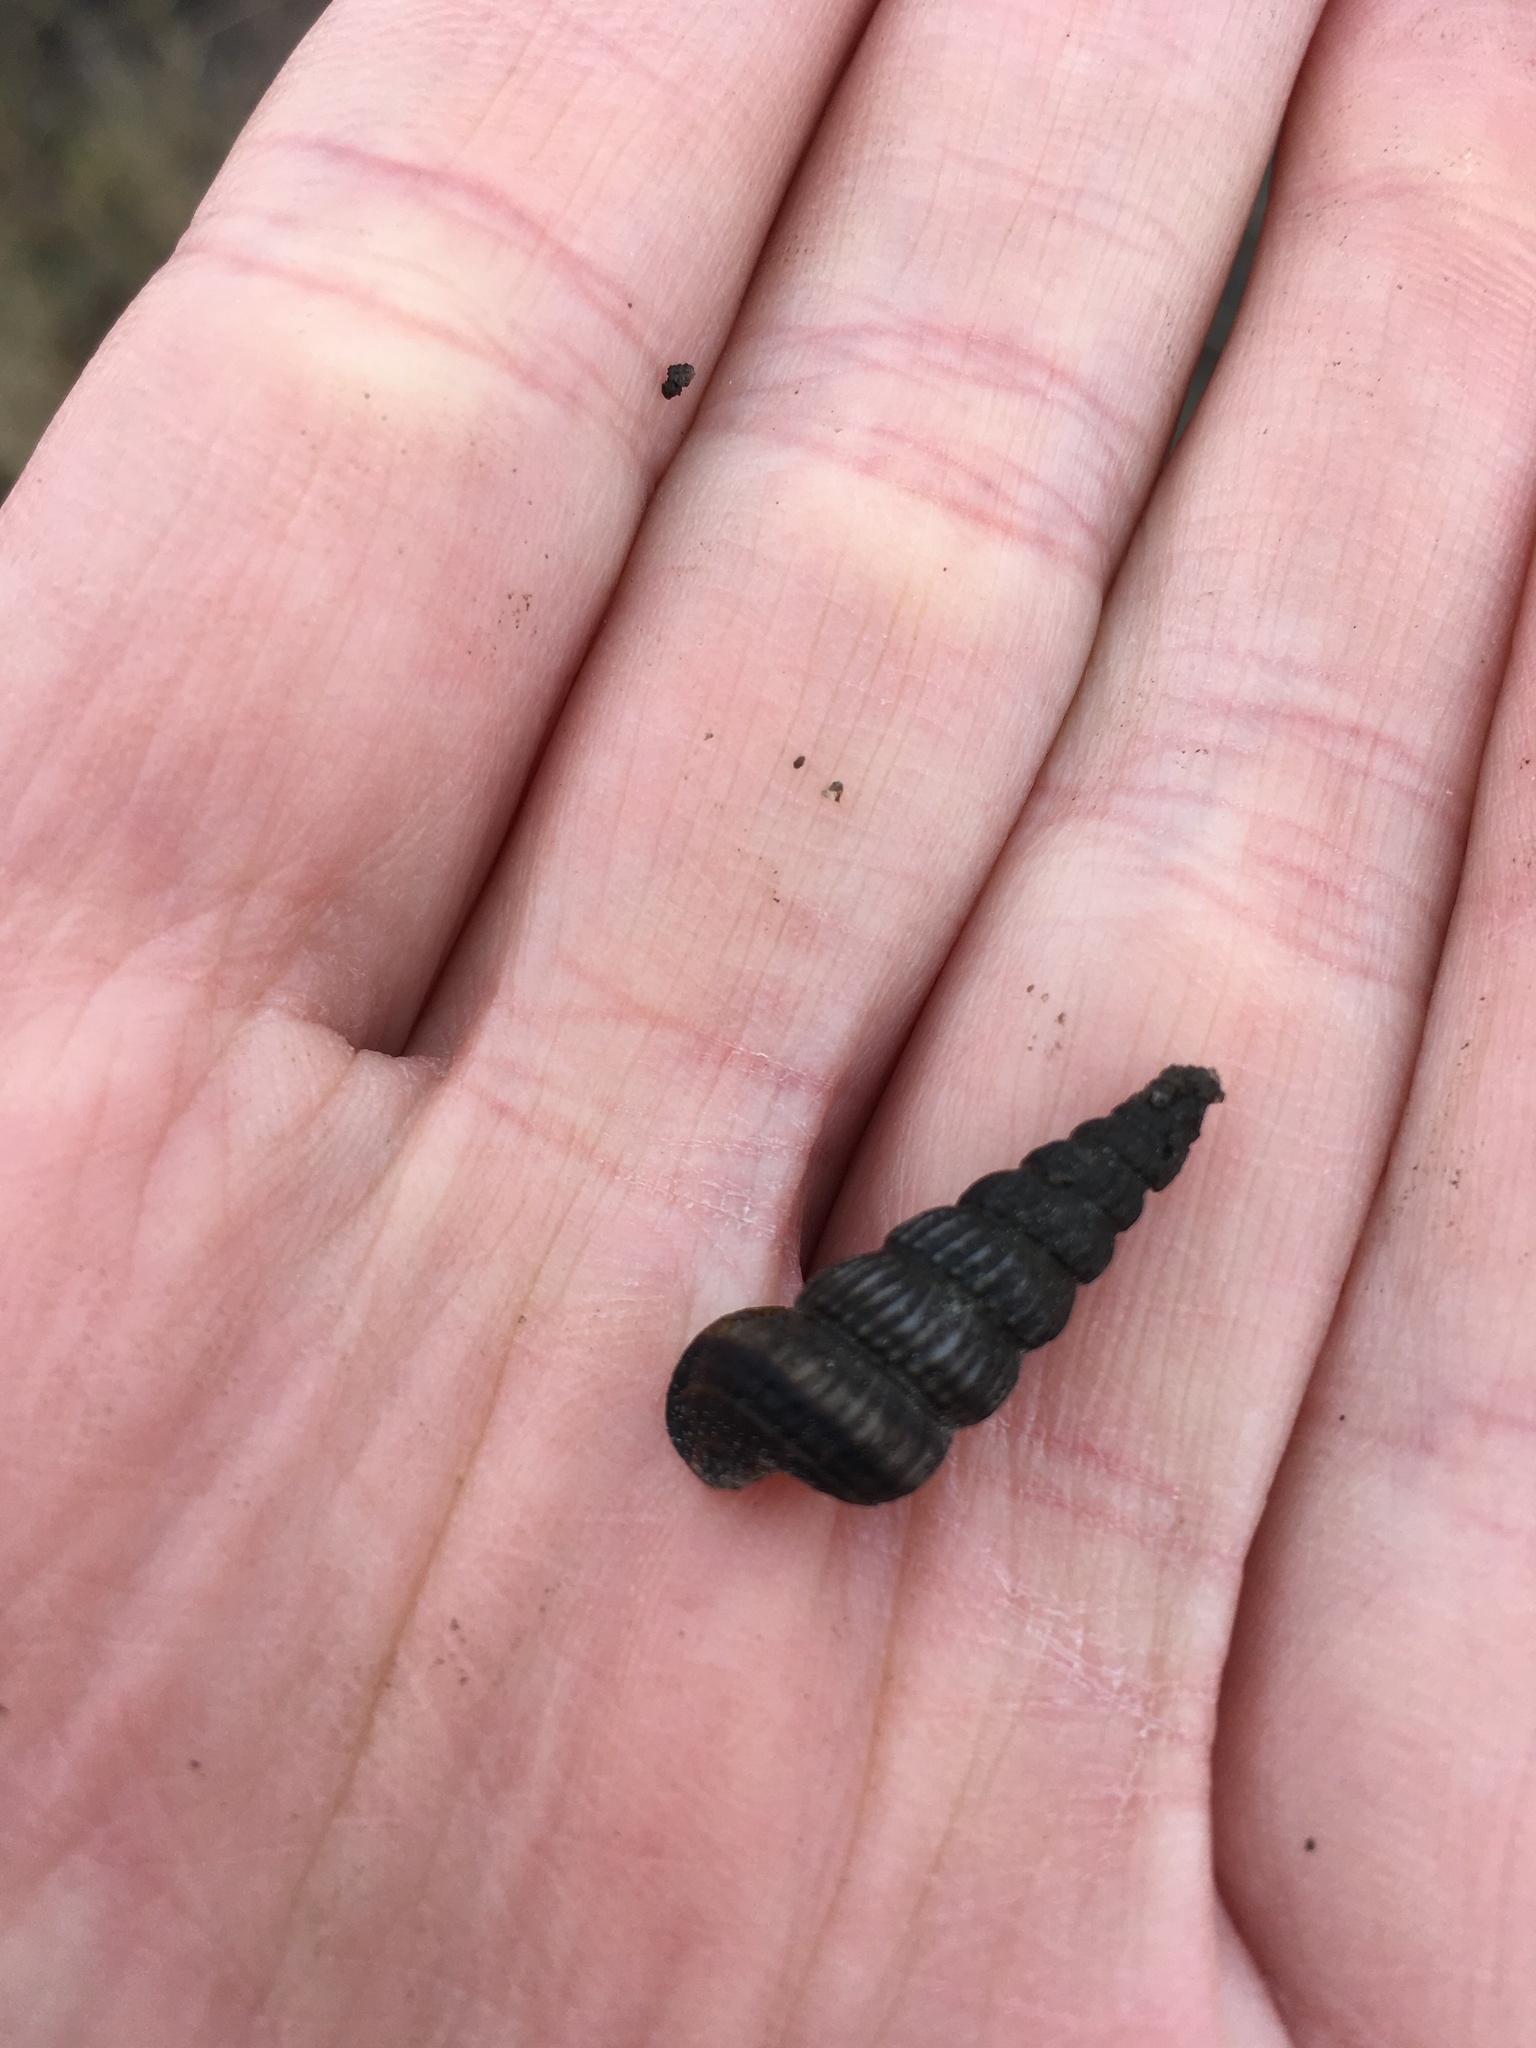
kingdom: Animalia
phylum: Mollusca
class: Gastropoda
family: Potamididae
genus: Cerithideopsis
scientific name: Cerithideopsis scalariformis
